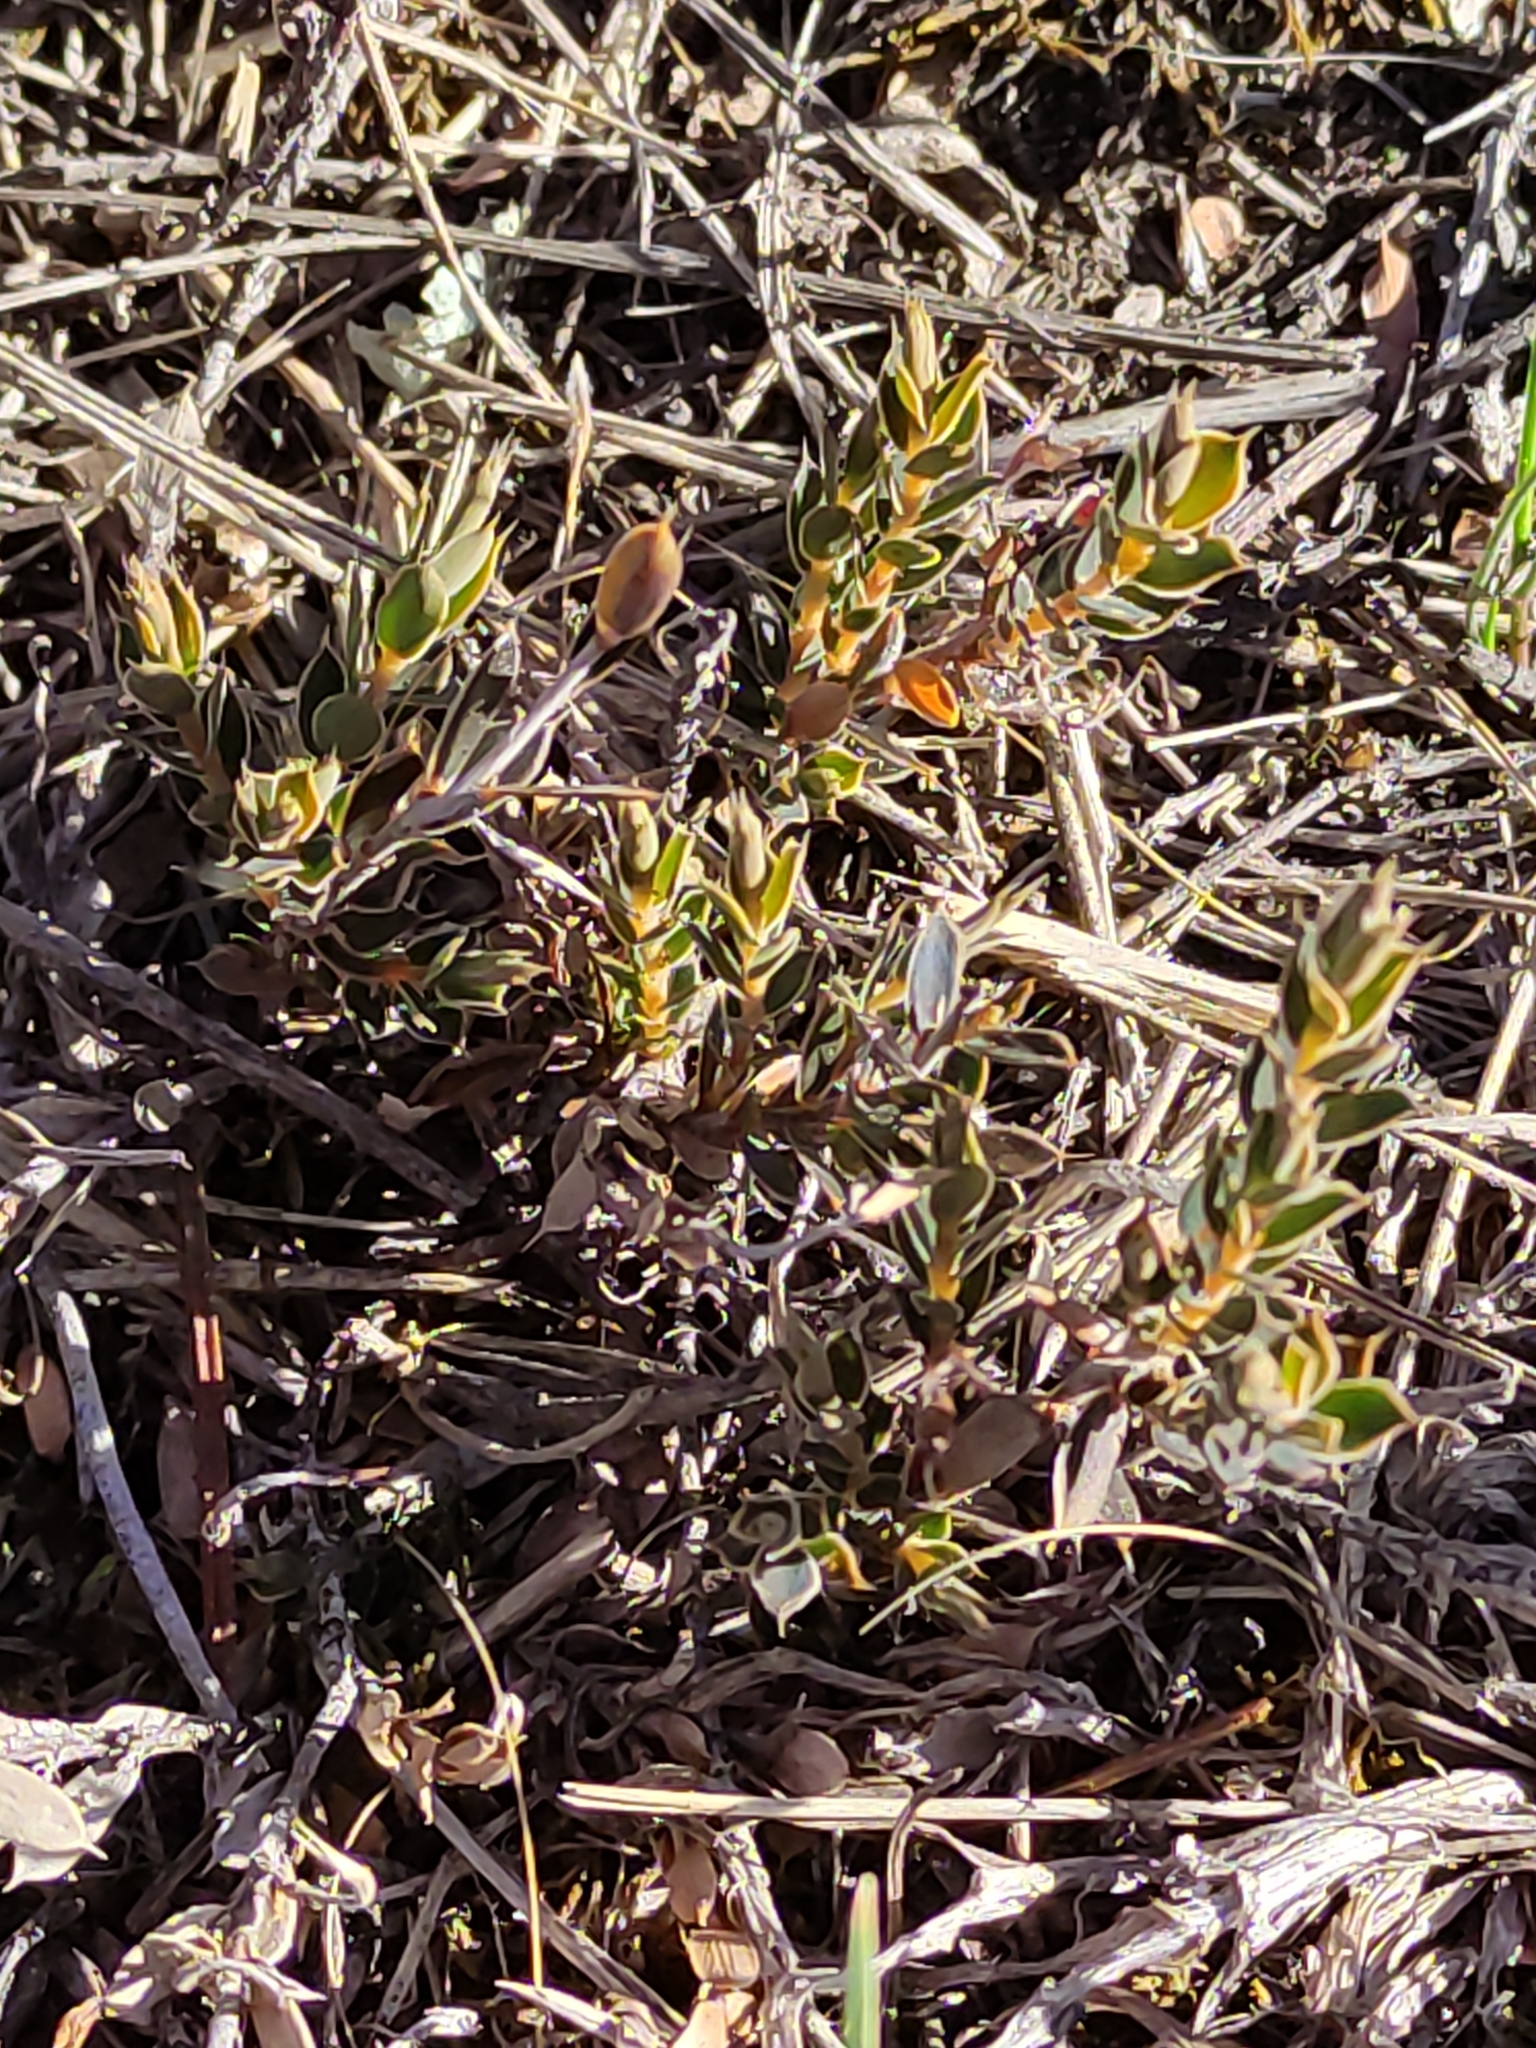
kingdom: Plantae
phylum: Tracheophyta
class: Magnoliopsida
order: Ericales
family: Ericaceae
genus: Styphelia
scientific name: Styphelia nesophila
